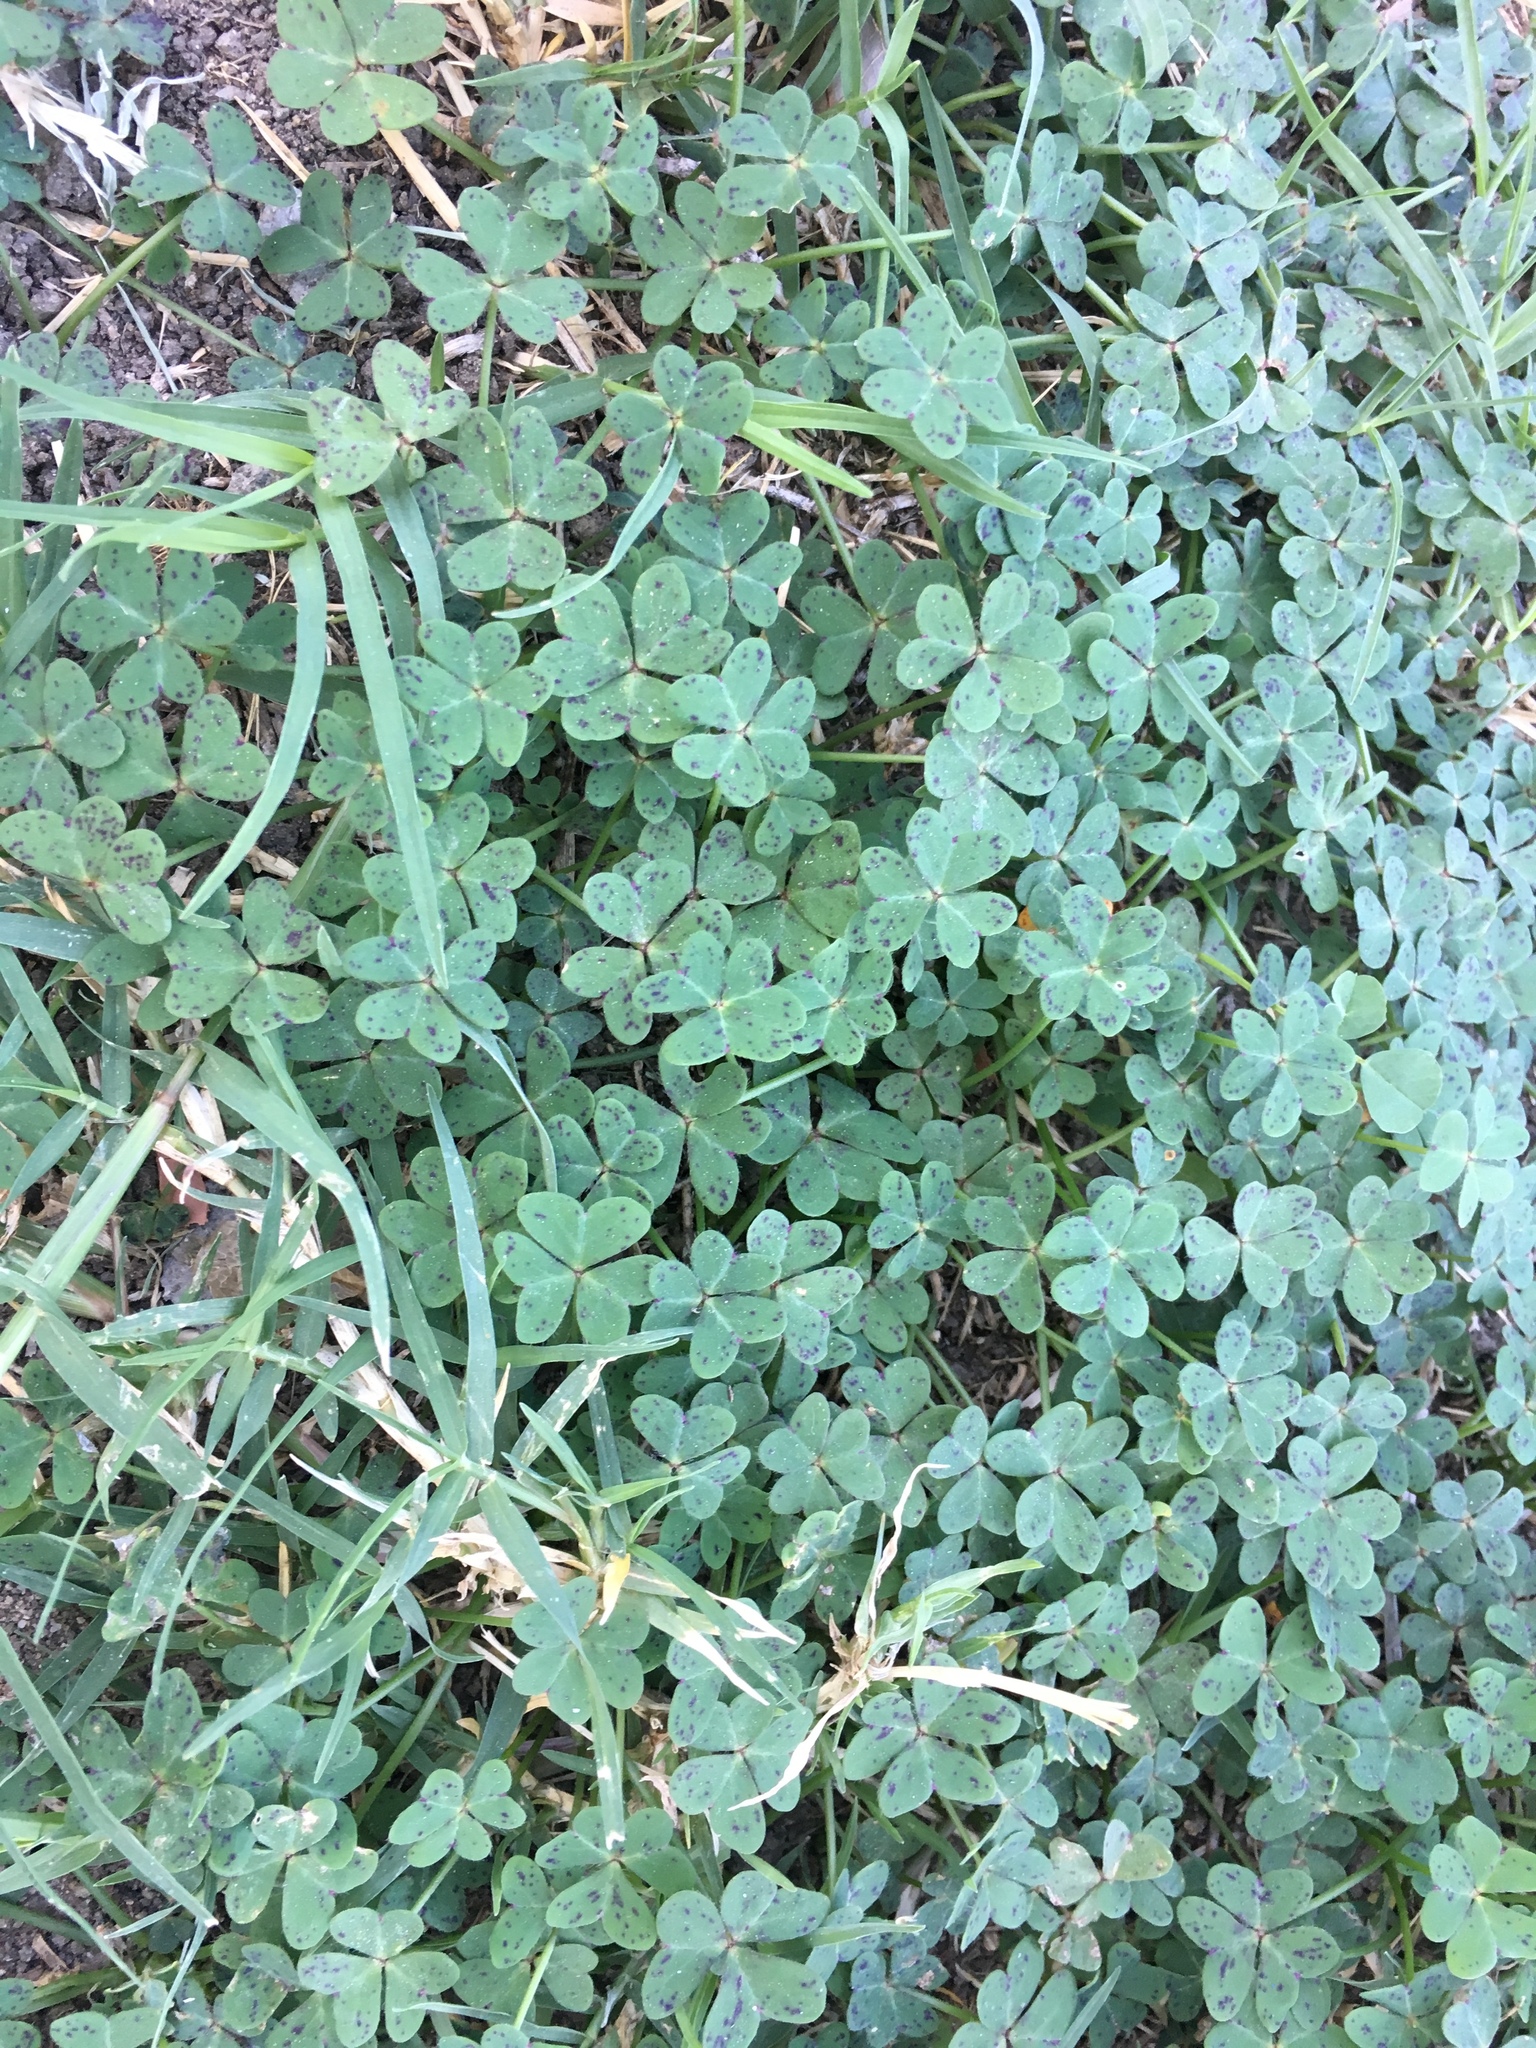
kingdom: Plantae
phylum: Tracheophyta
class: Magnoliopsida
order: Oxalidales
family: Oxalidaceae
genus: Oxalis
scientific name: Oxalis pes-caprae
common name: Bermuda-buttercup
